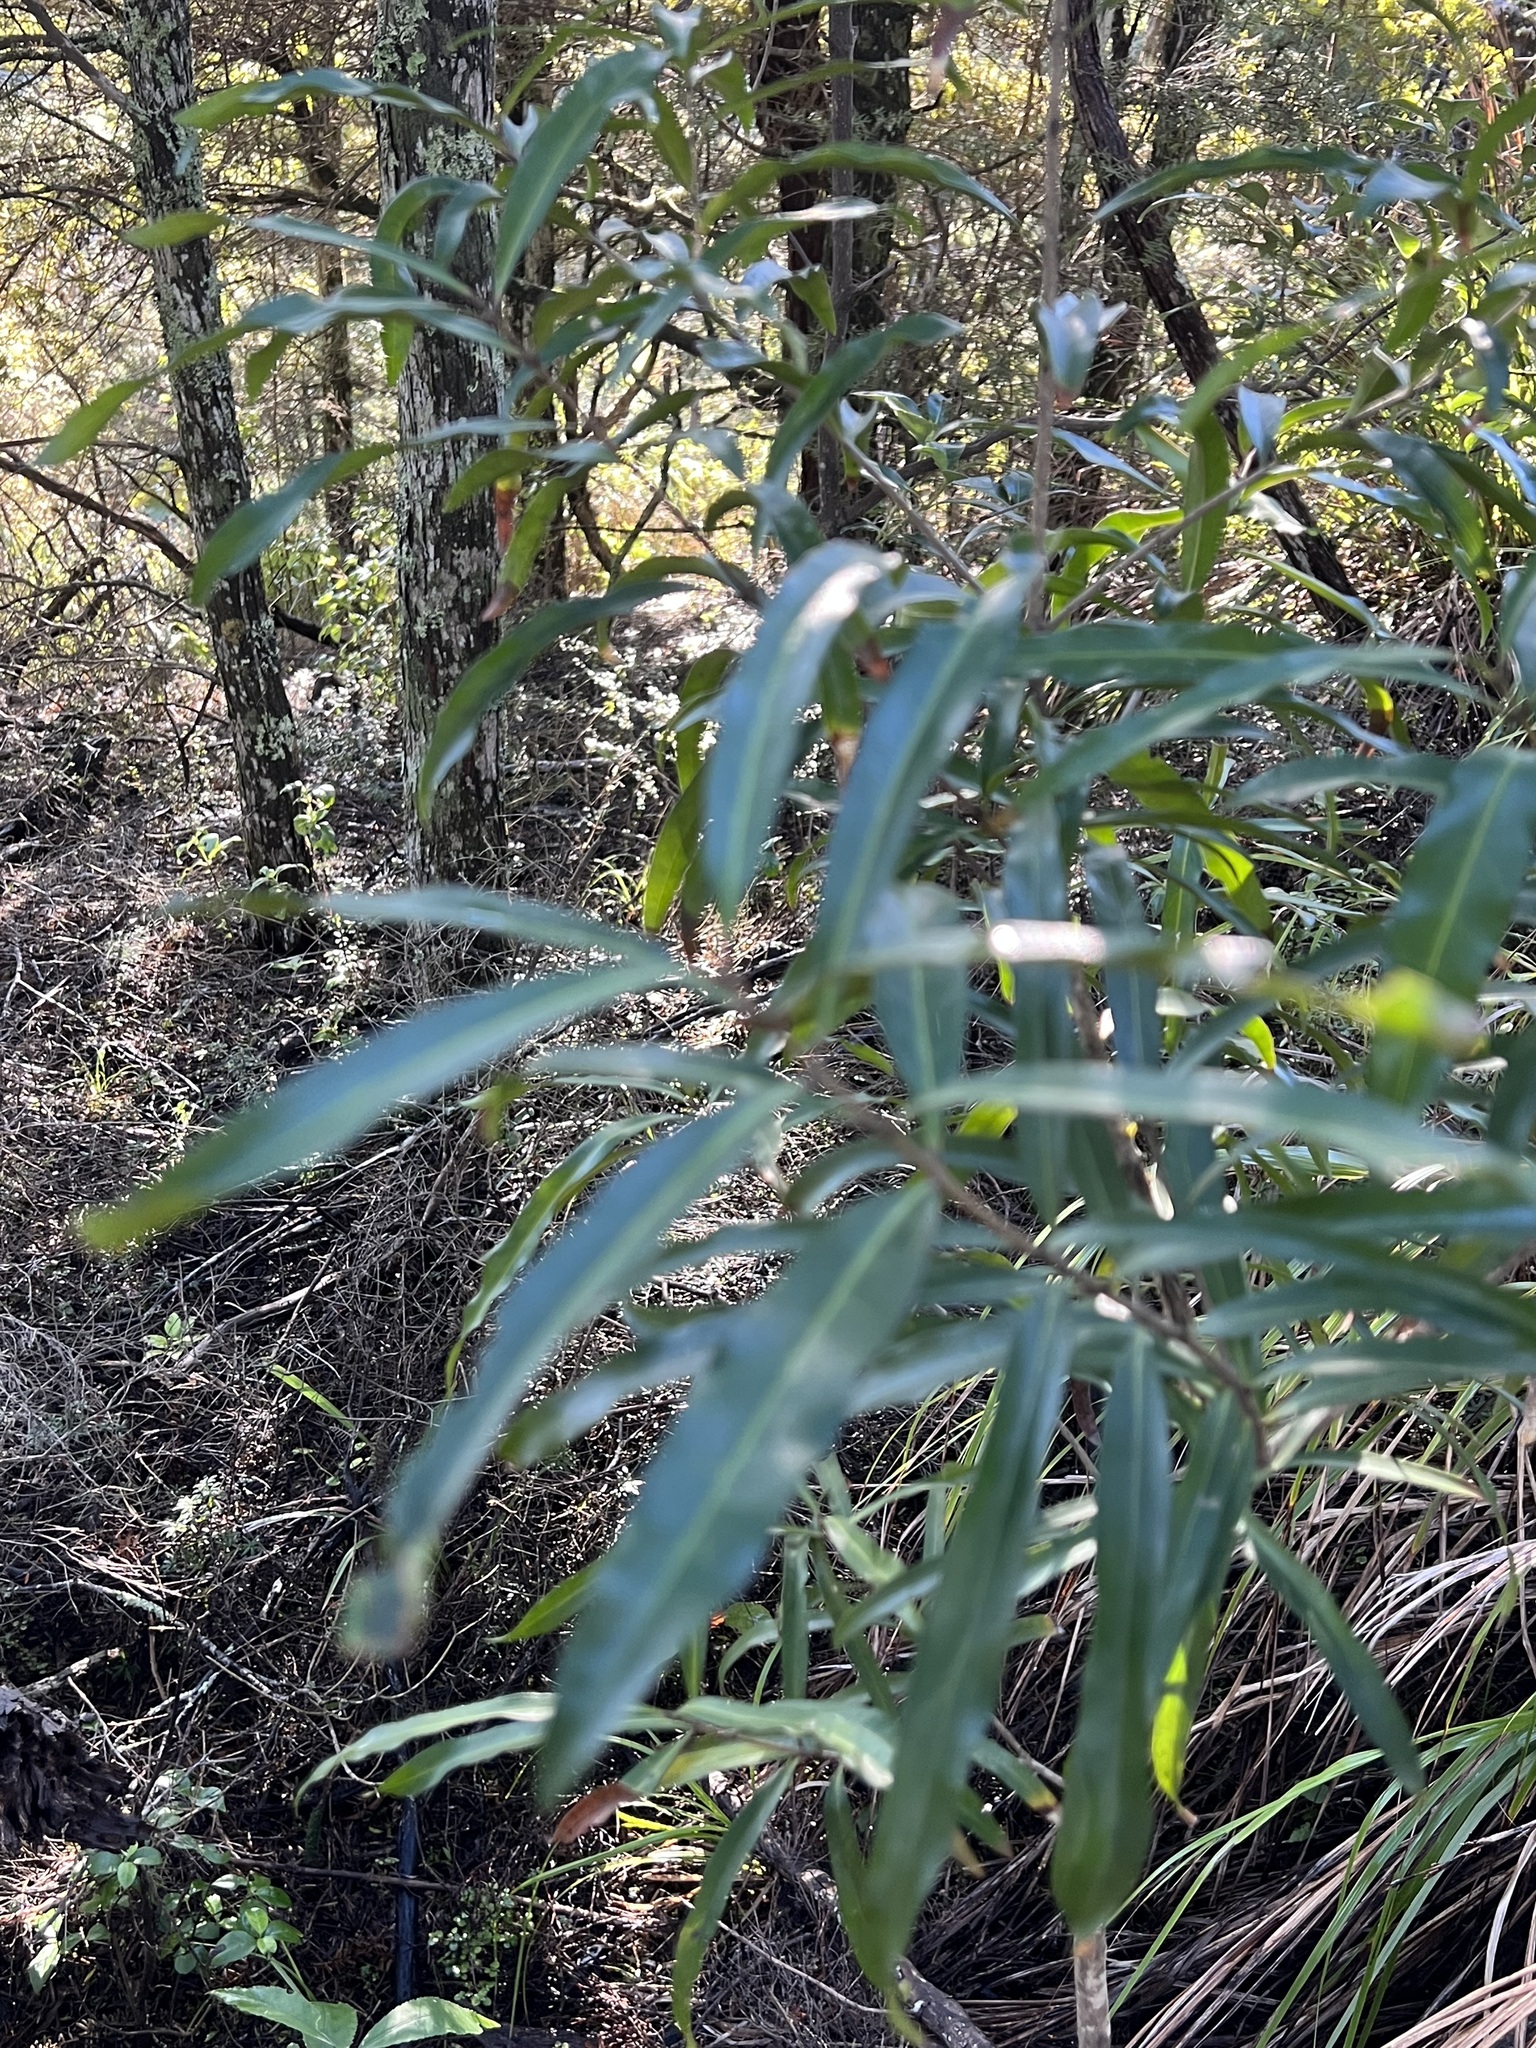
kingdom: Plantae
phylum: Tracheophyta
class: Magnoliopsida
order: Lamiales
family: Oleaceae
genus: Nestegis
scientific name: Nestegis lanceolata
